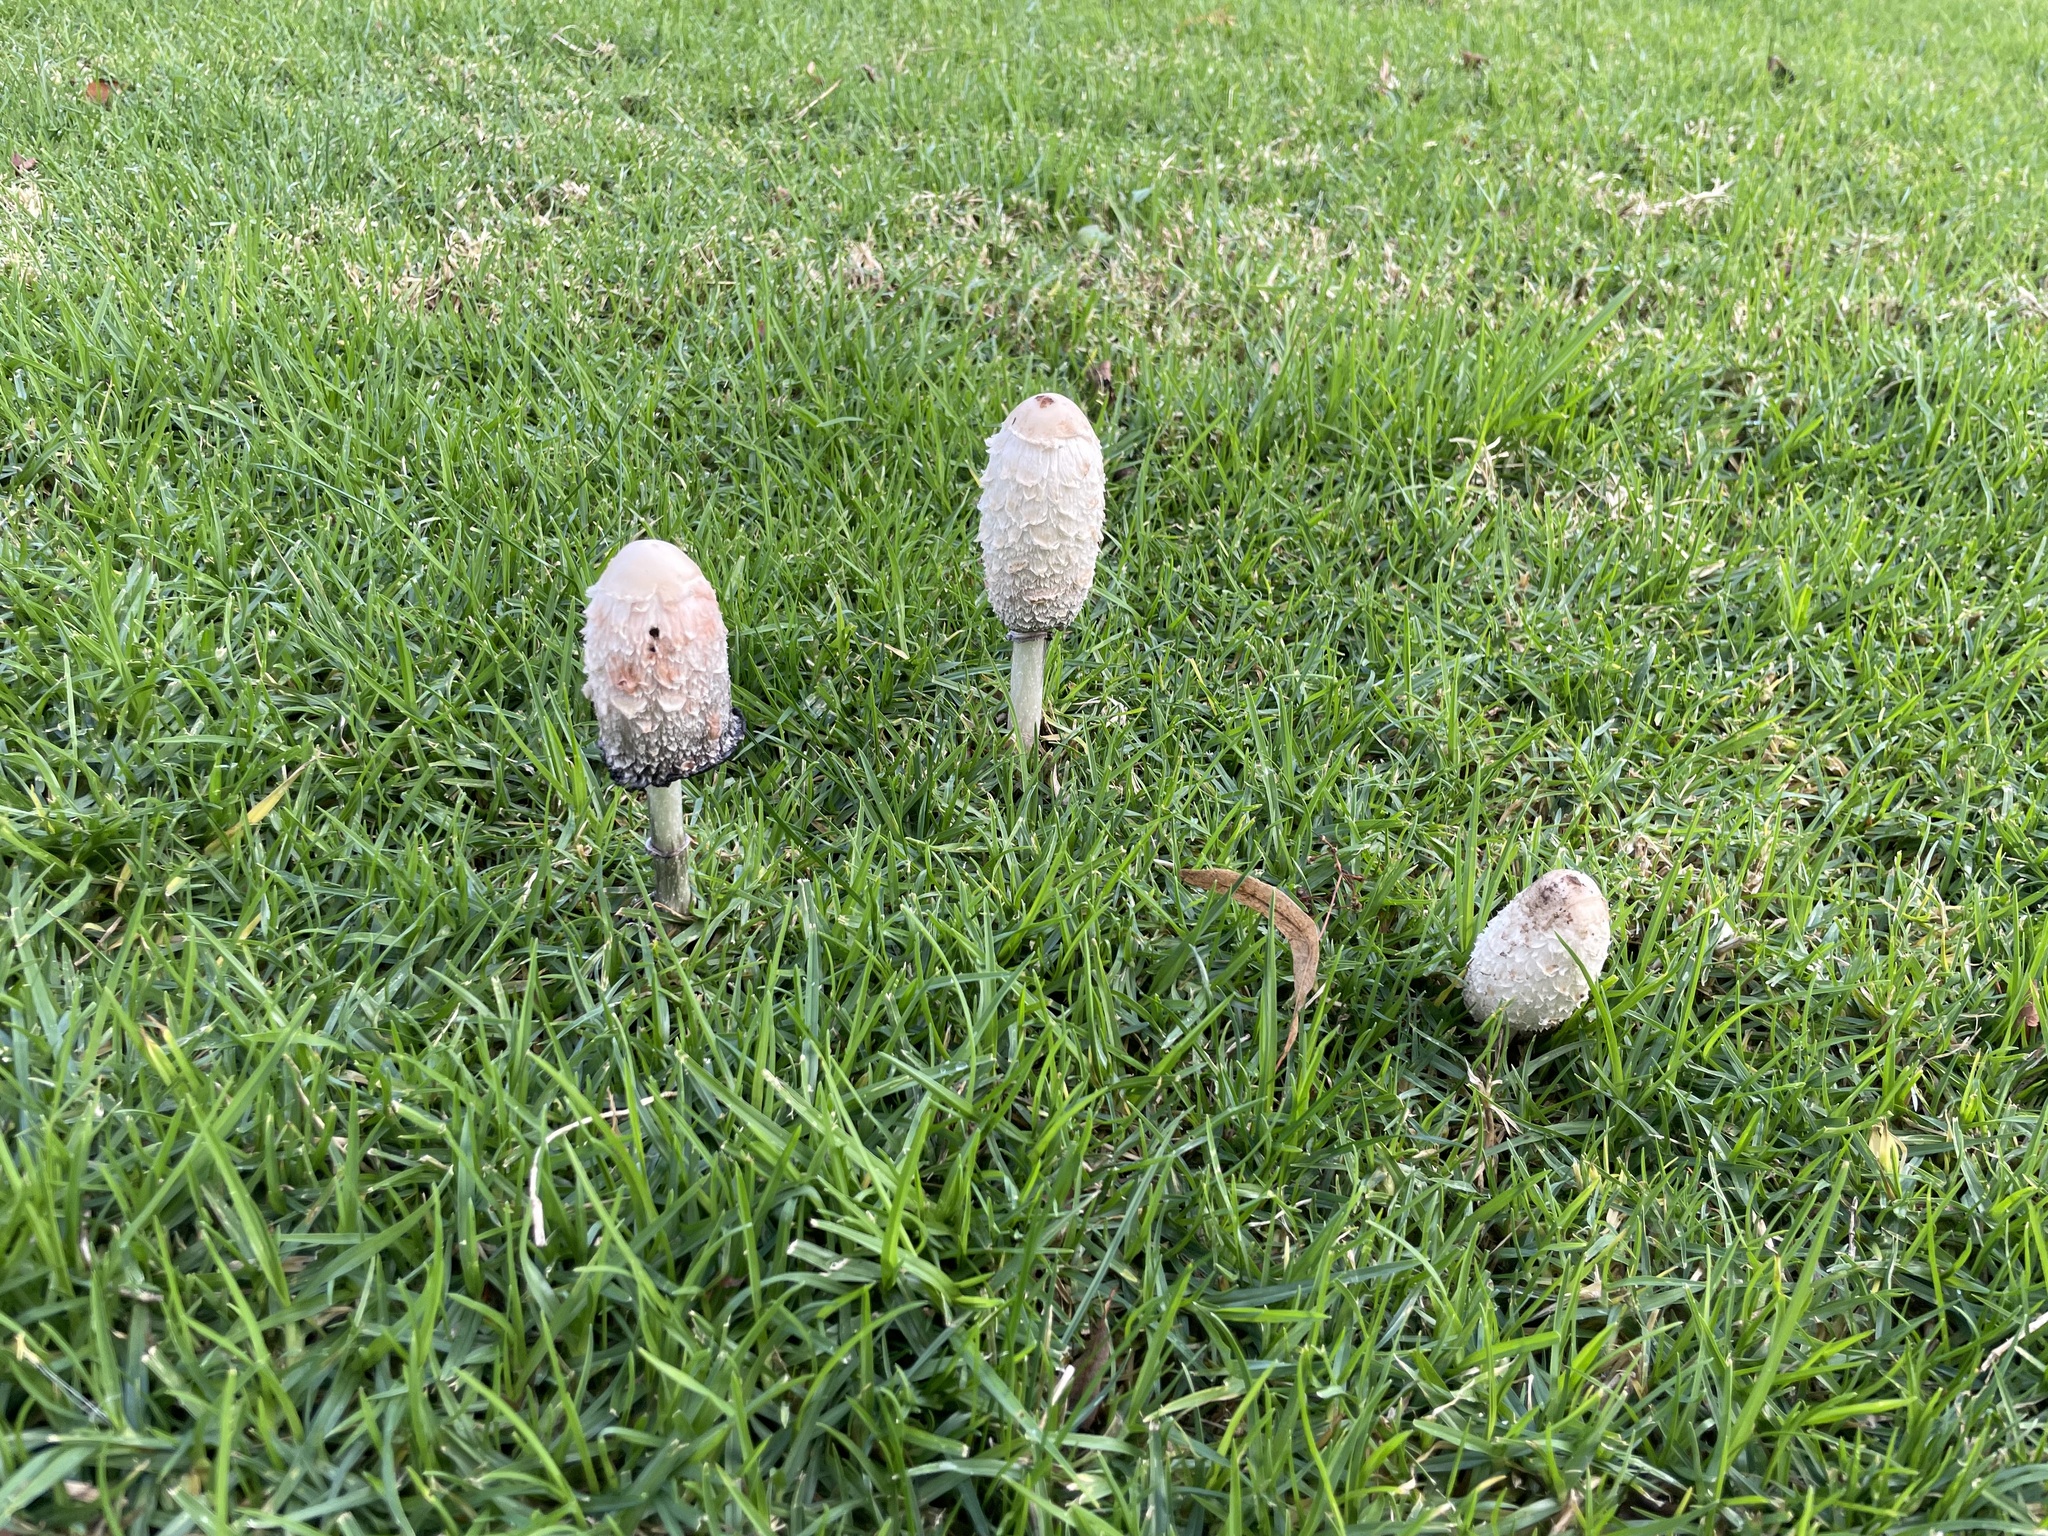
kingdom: Fungi
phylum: Basidiomycota
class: Agaricomycetes
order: Agaricales
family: Agaricaceae
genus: Coprinus
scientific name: Coprinus comatus
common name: Lawyer's wig
